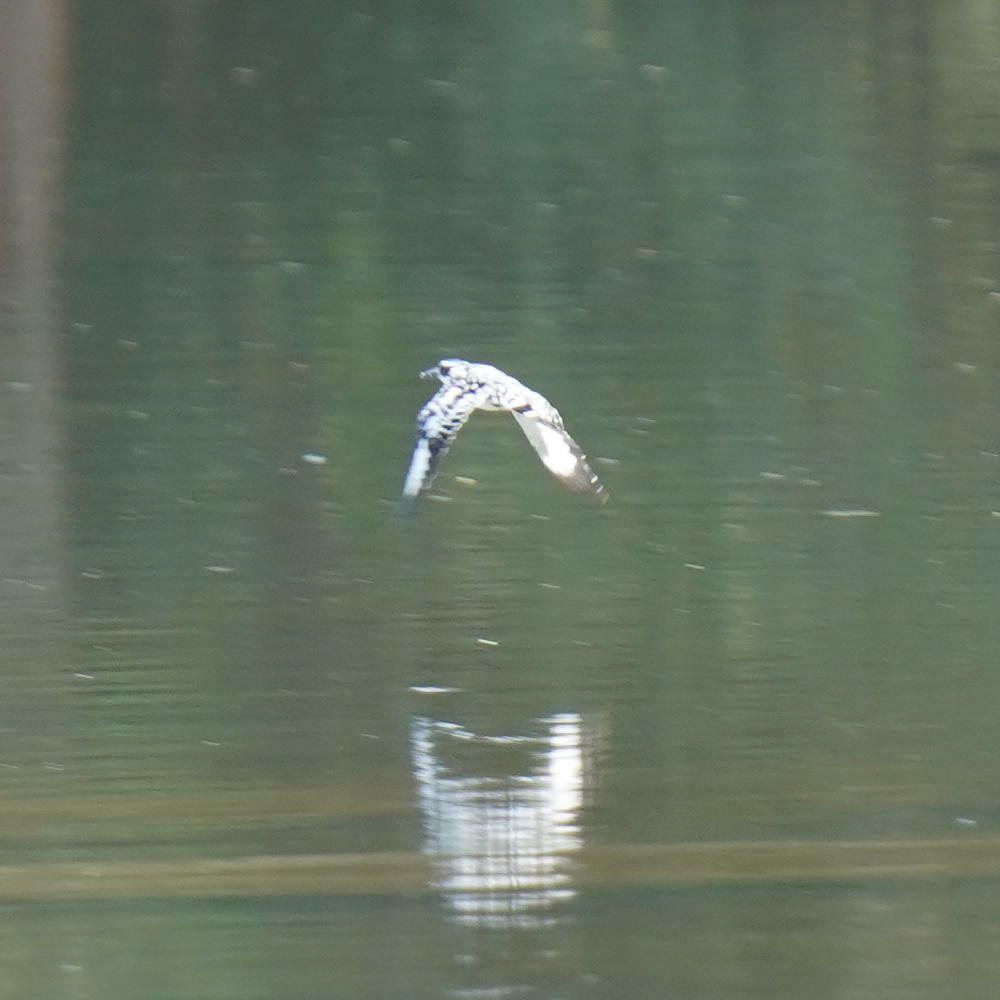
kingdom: Animalia
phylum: Chordata
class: Aves
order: Coraciiformes
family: Alcedinidae
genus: Ceryle
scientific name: Ceryle rudis
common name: Pied kingfisher
